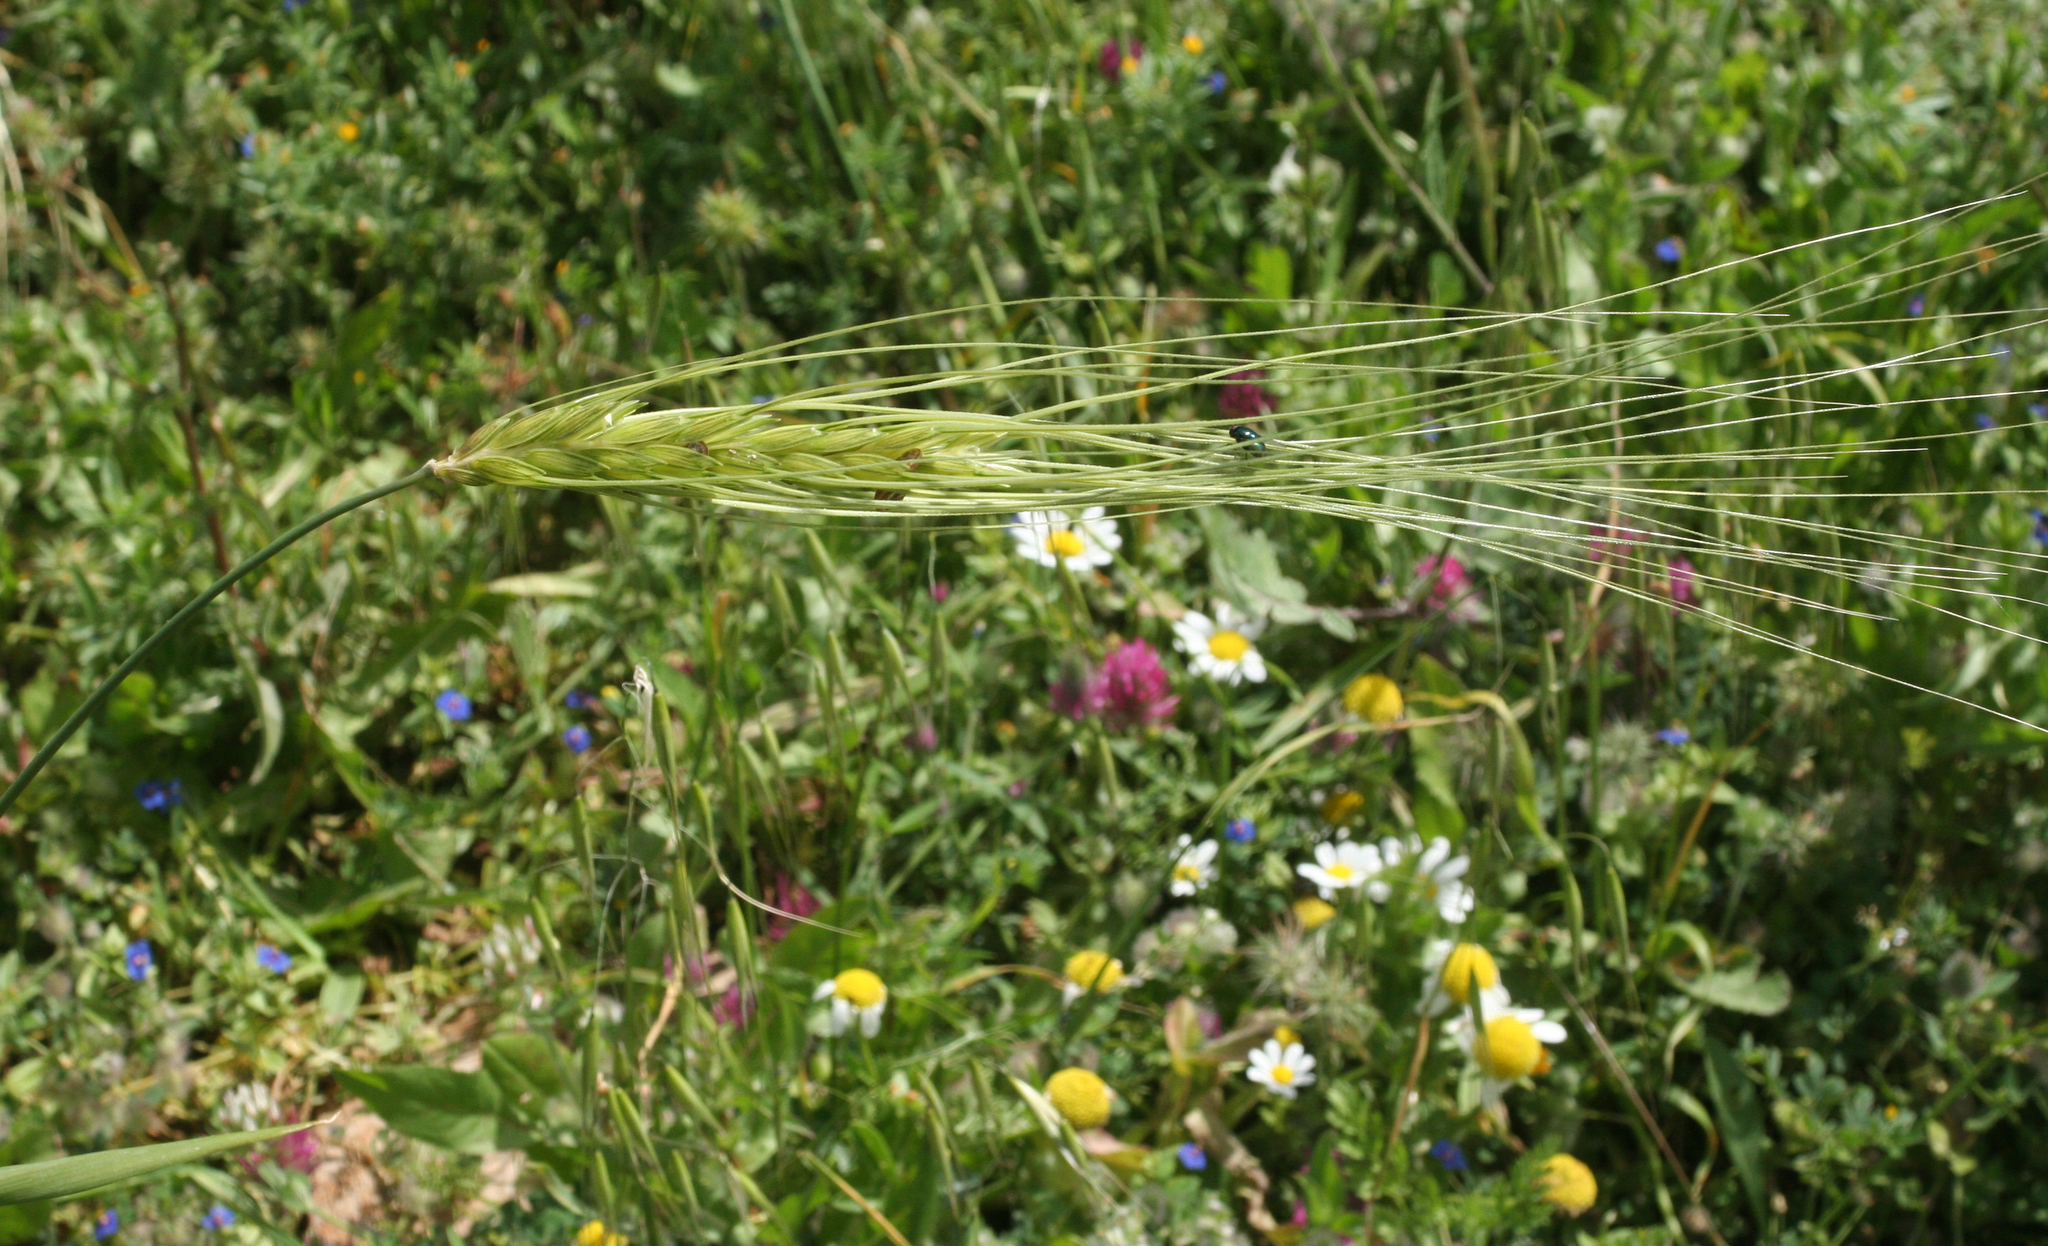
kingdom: Plantae
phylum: Tracheophyta
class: Liliopsida
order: Poales
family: Poaceae
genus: Triticum
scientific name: Triticum dicoccoides
